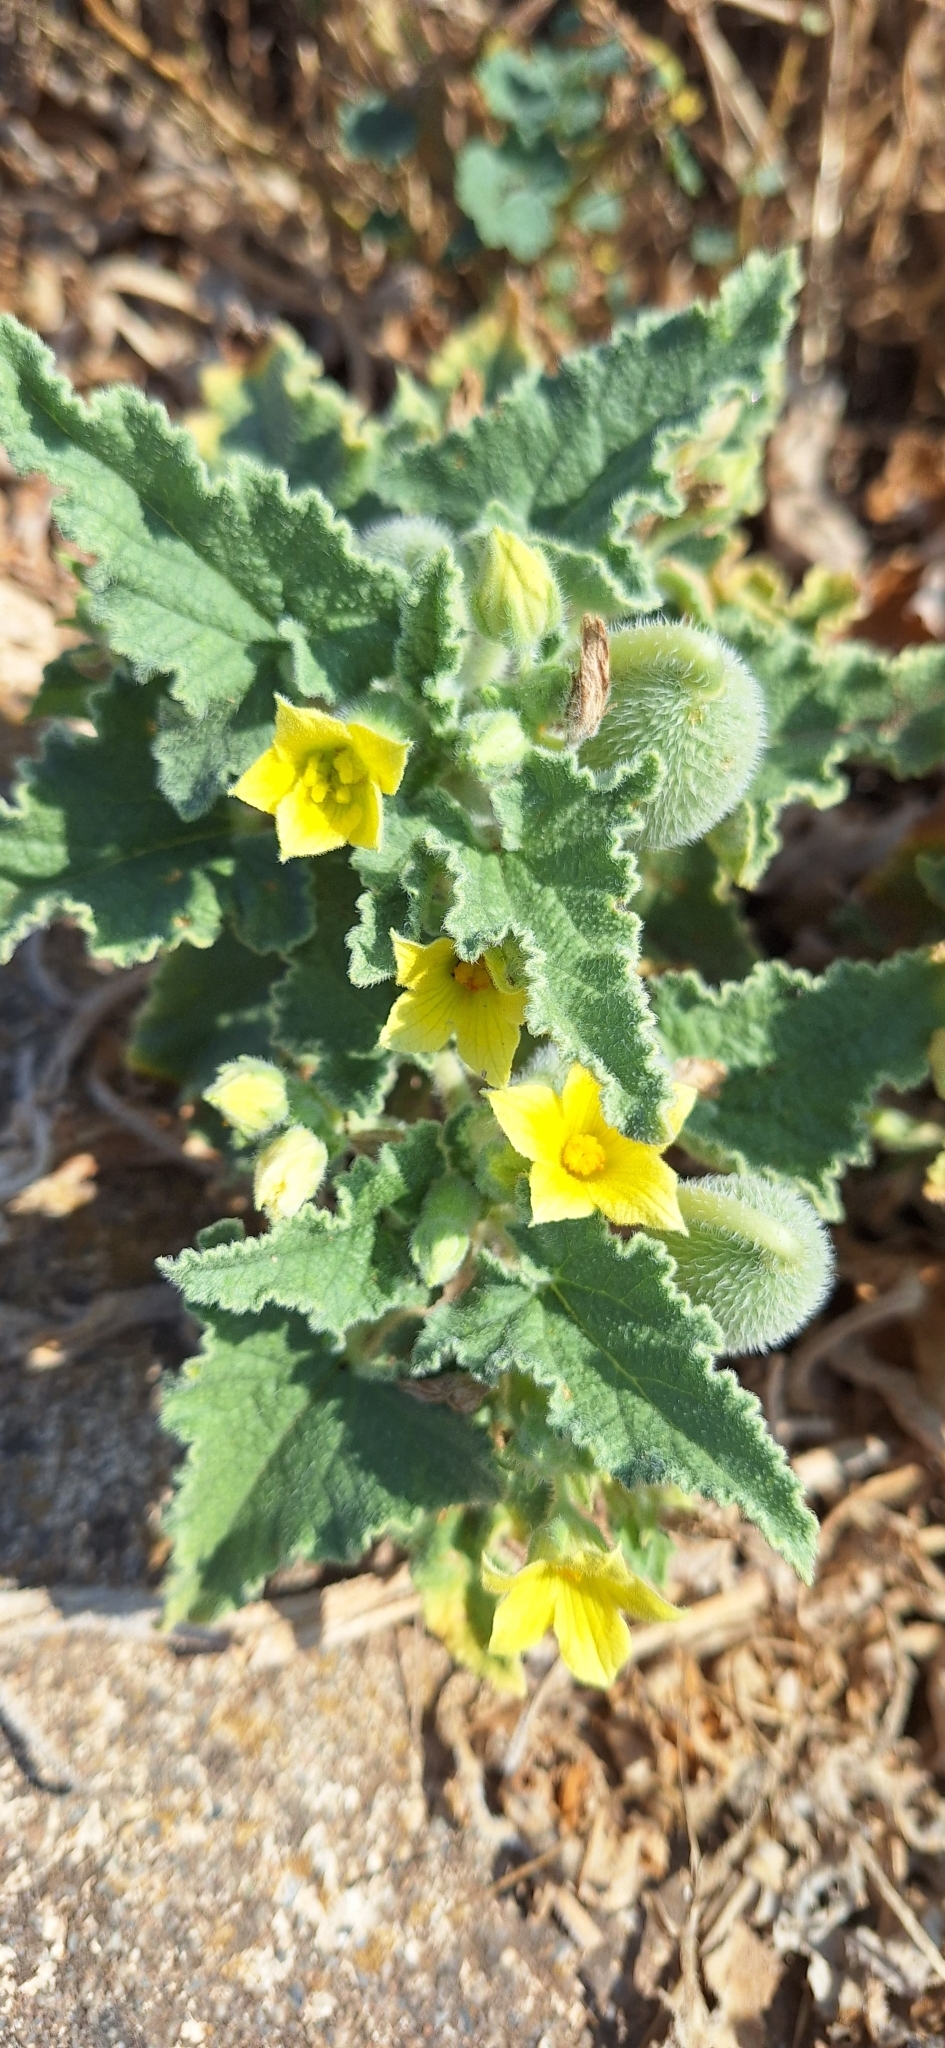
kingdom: Plantae
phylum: Tracheophyta
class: Magnoliopsida
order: Cucurbitales
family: Cucurbitaceae
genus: Ecballium
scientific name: Ecballium elaterium
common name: Squirting cucumber
